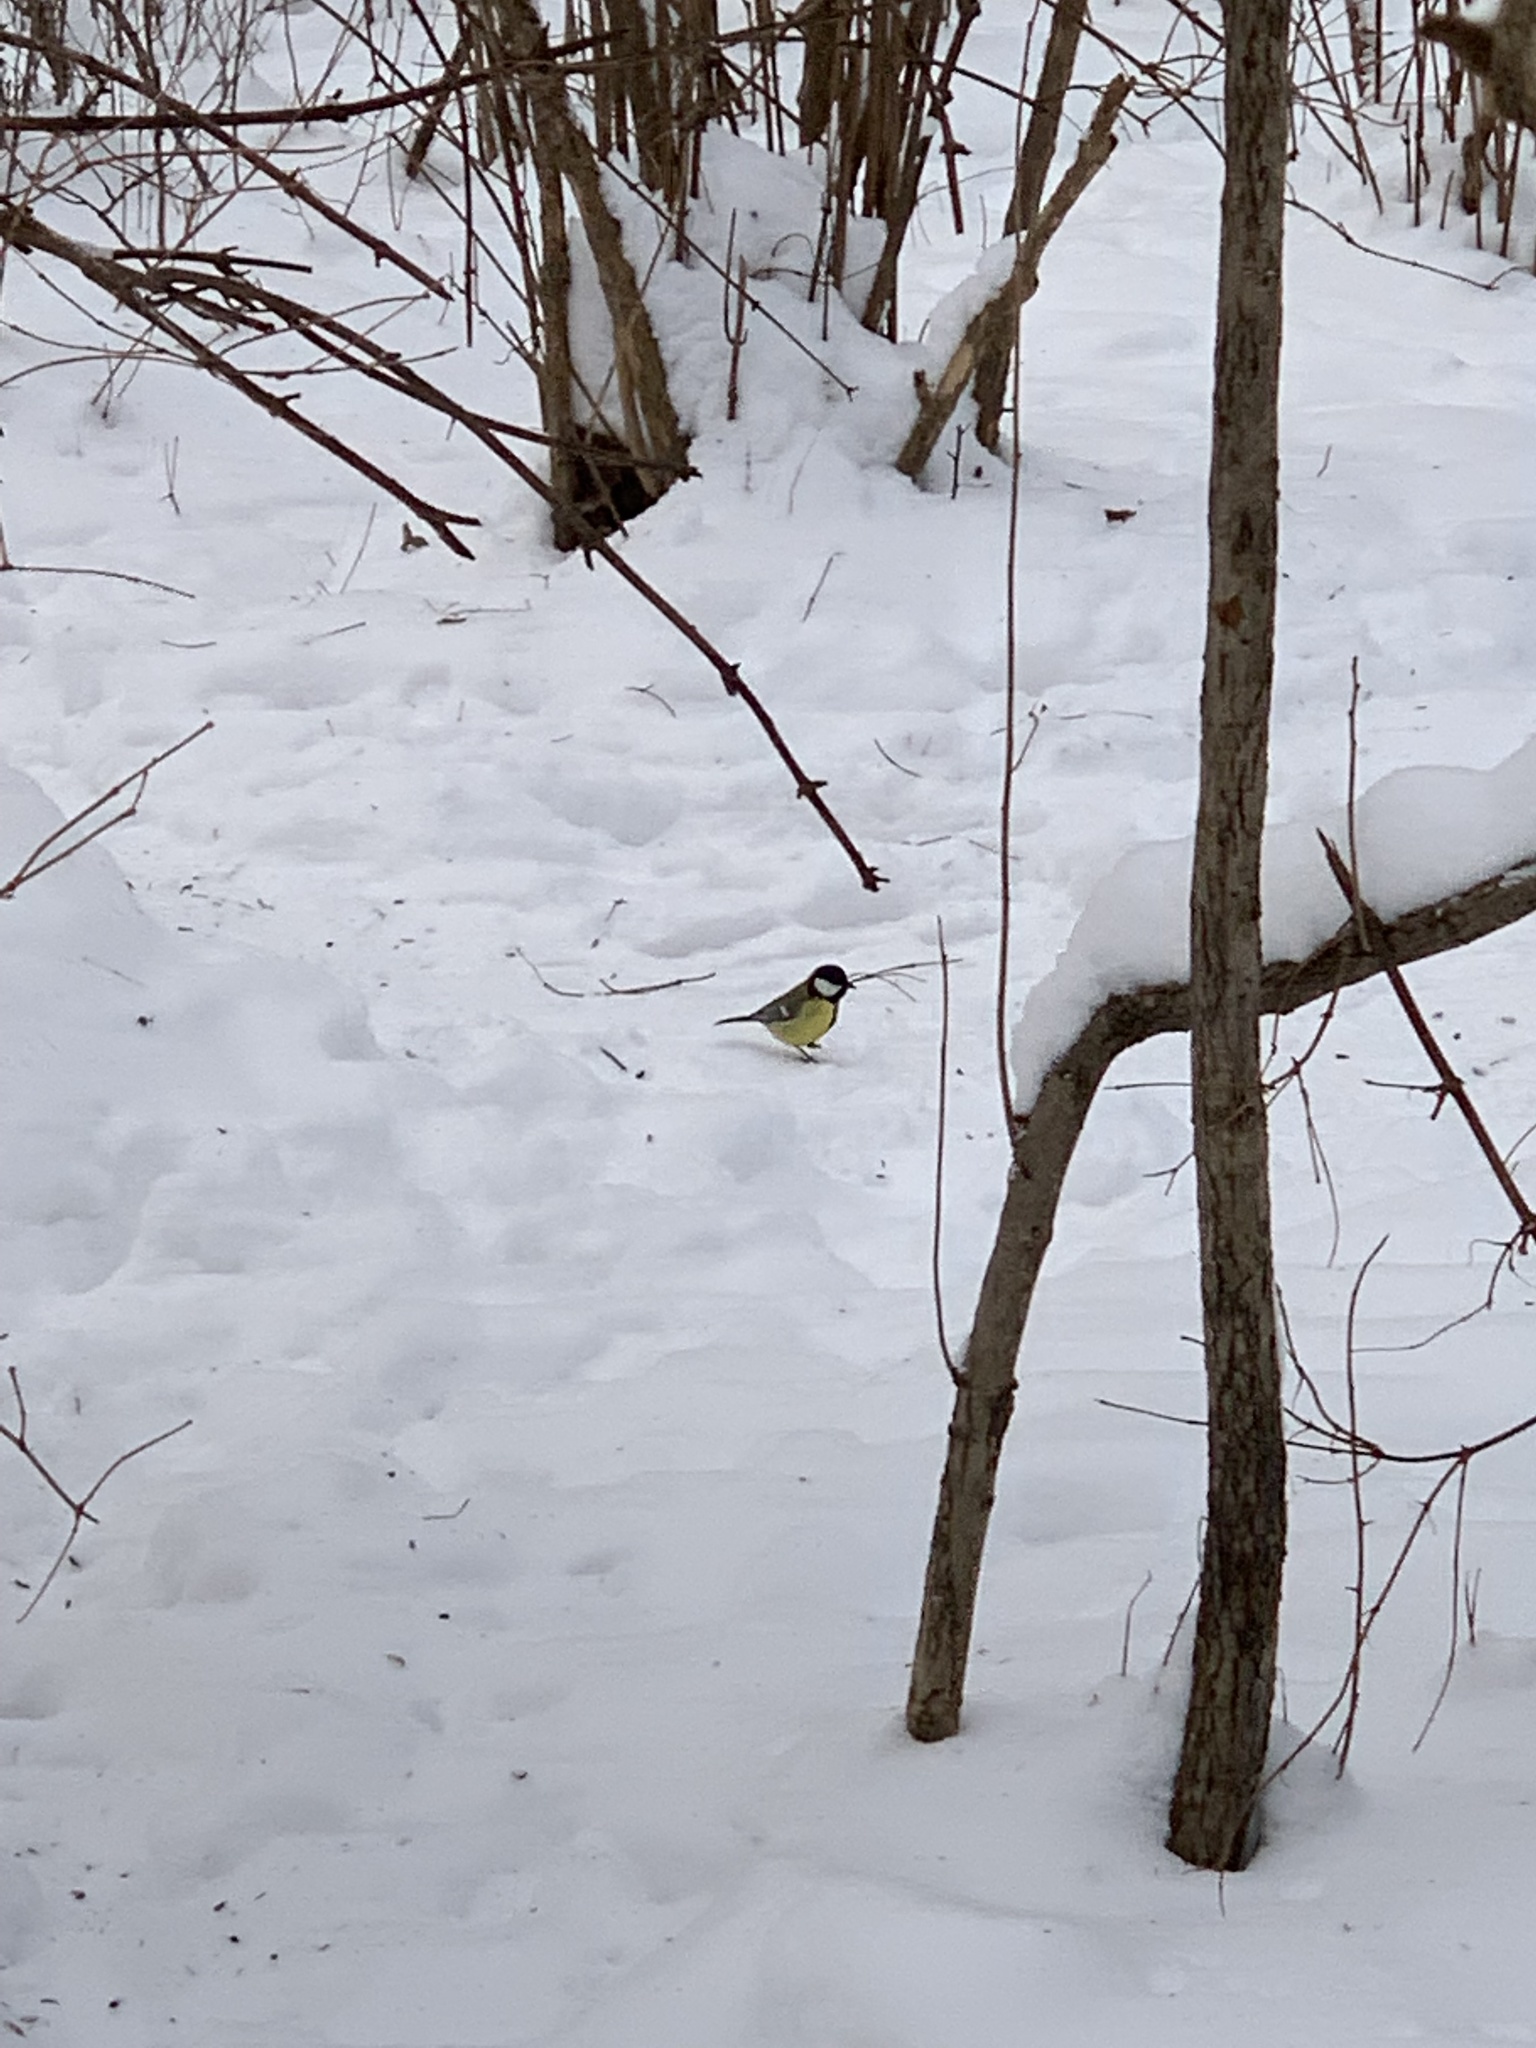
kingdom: Animalia
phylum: Chordata
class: Aves
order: Passeriformes
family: Paridae
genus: Parus
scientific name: Parus major
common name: Great tit
